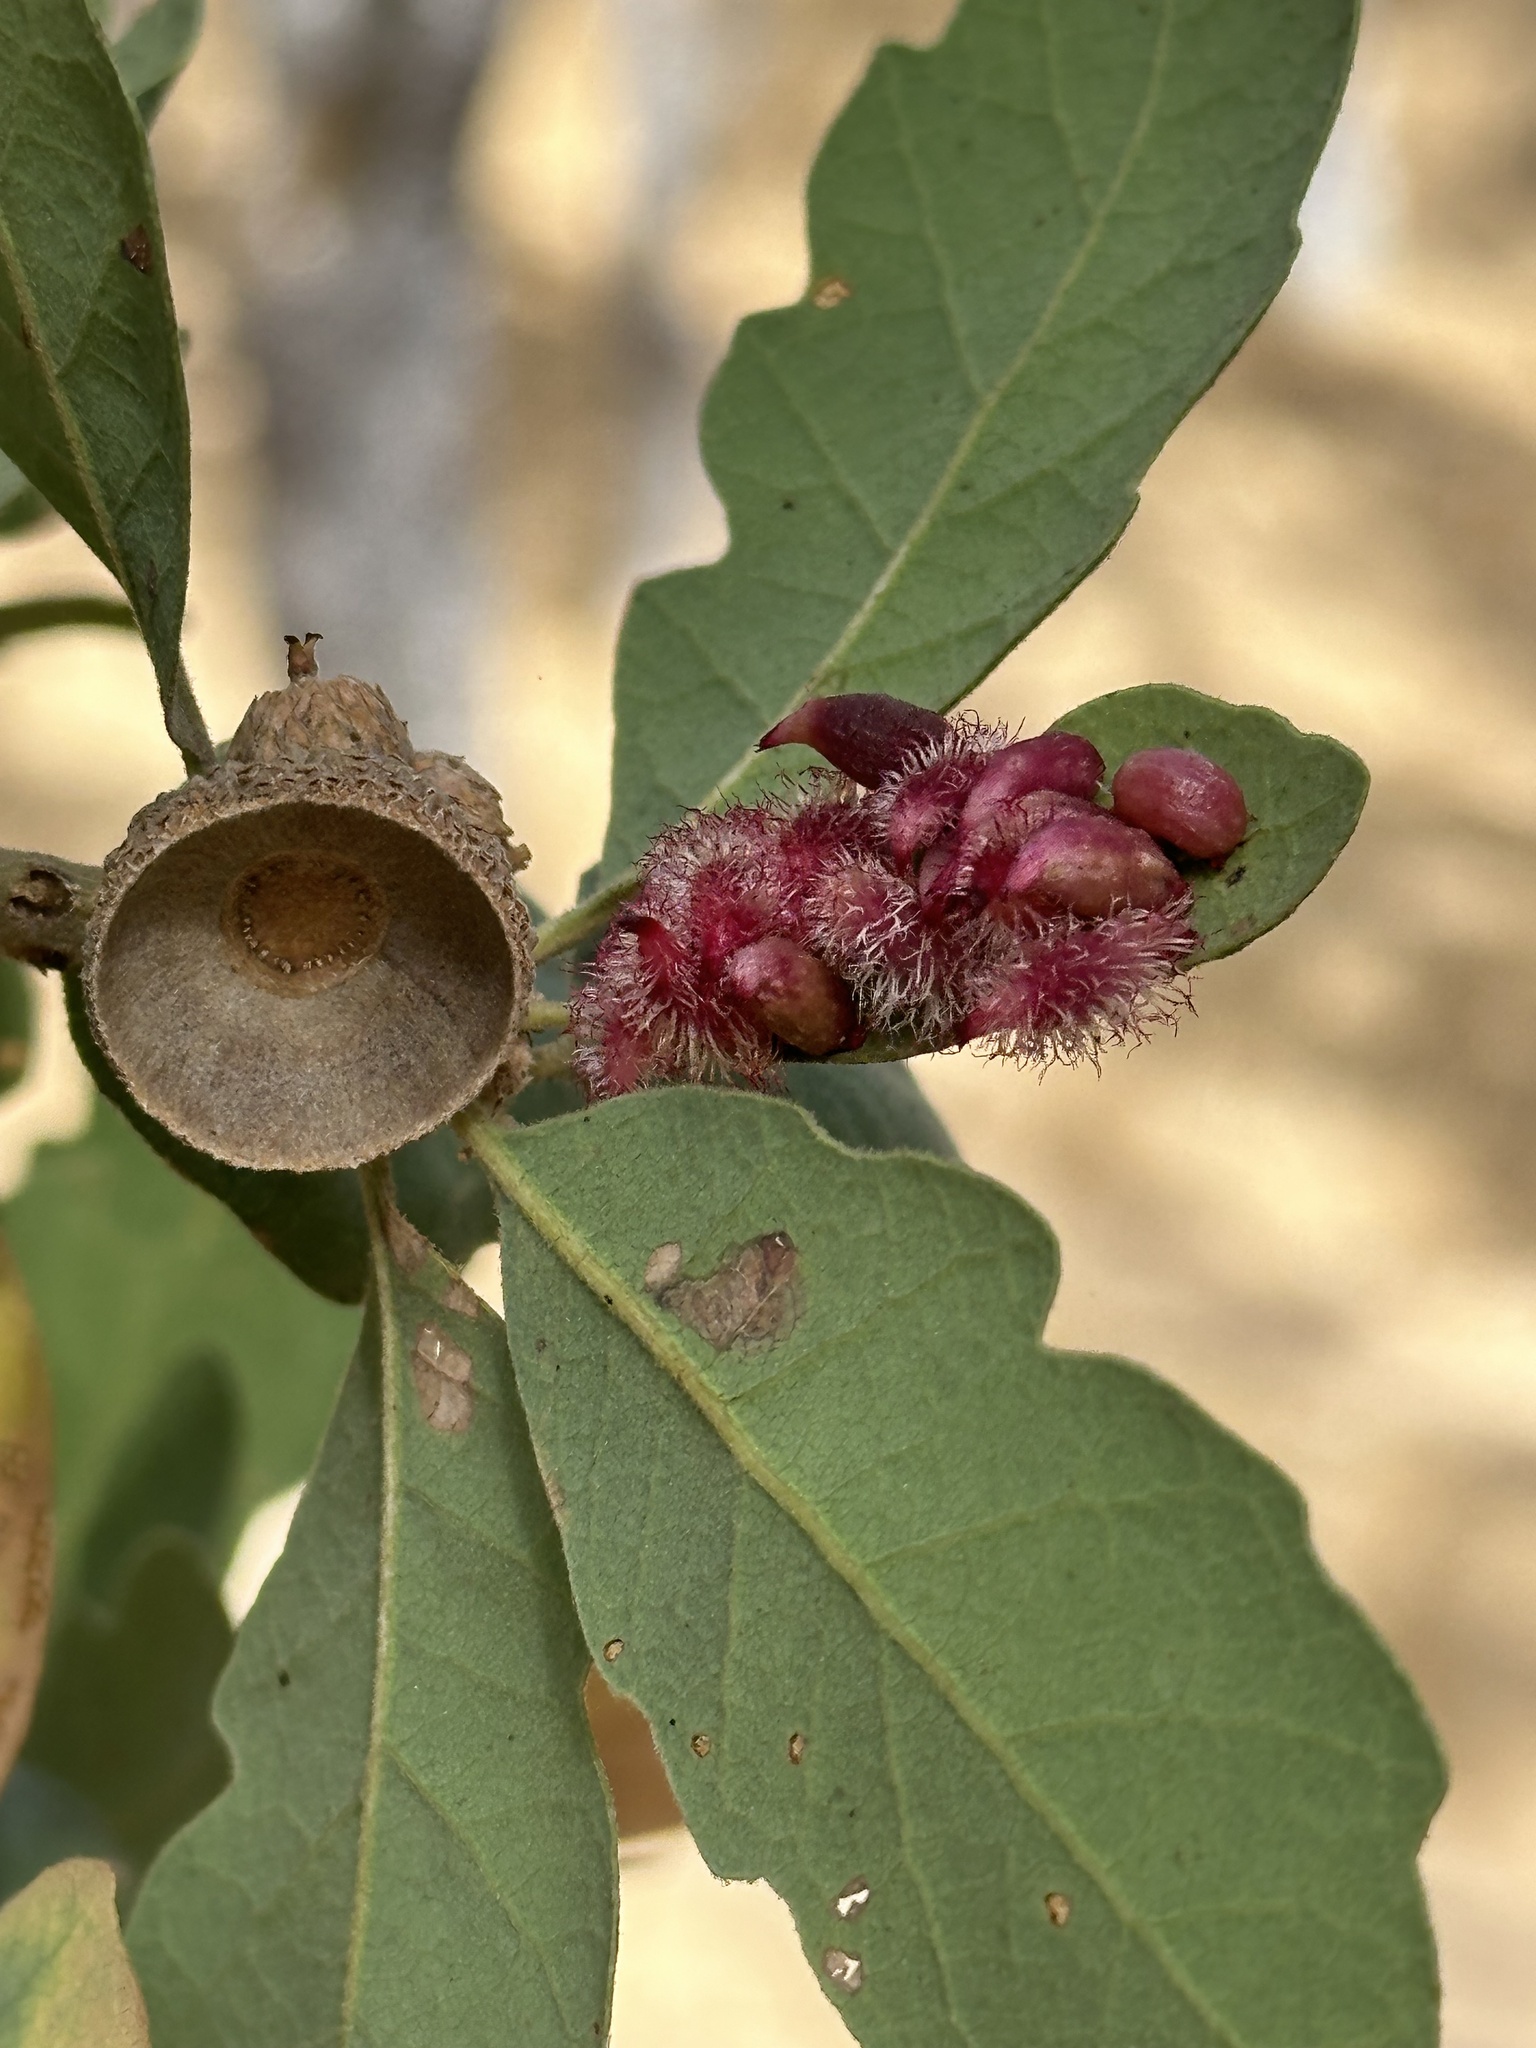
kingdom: Animalia
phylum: Arthropoda
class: Insecta
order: Hymenoptera
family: Cynipidae
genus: Andricus
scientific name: Andricus
